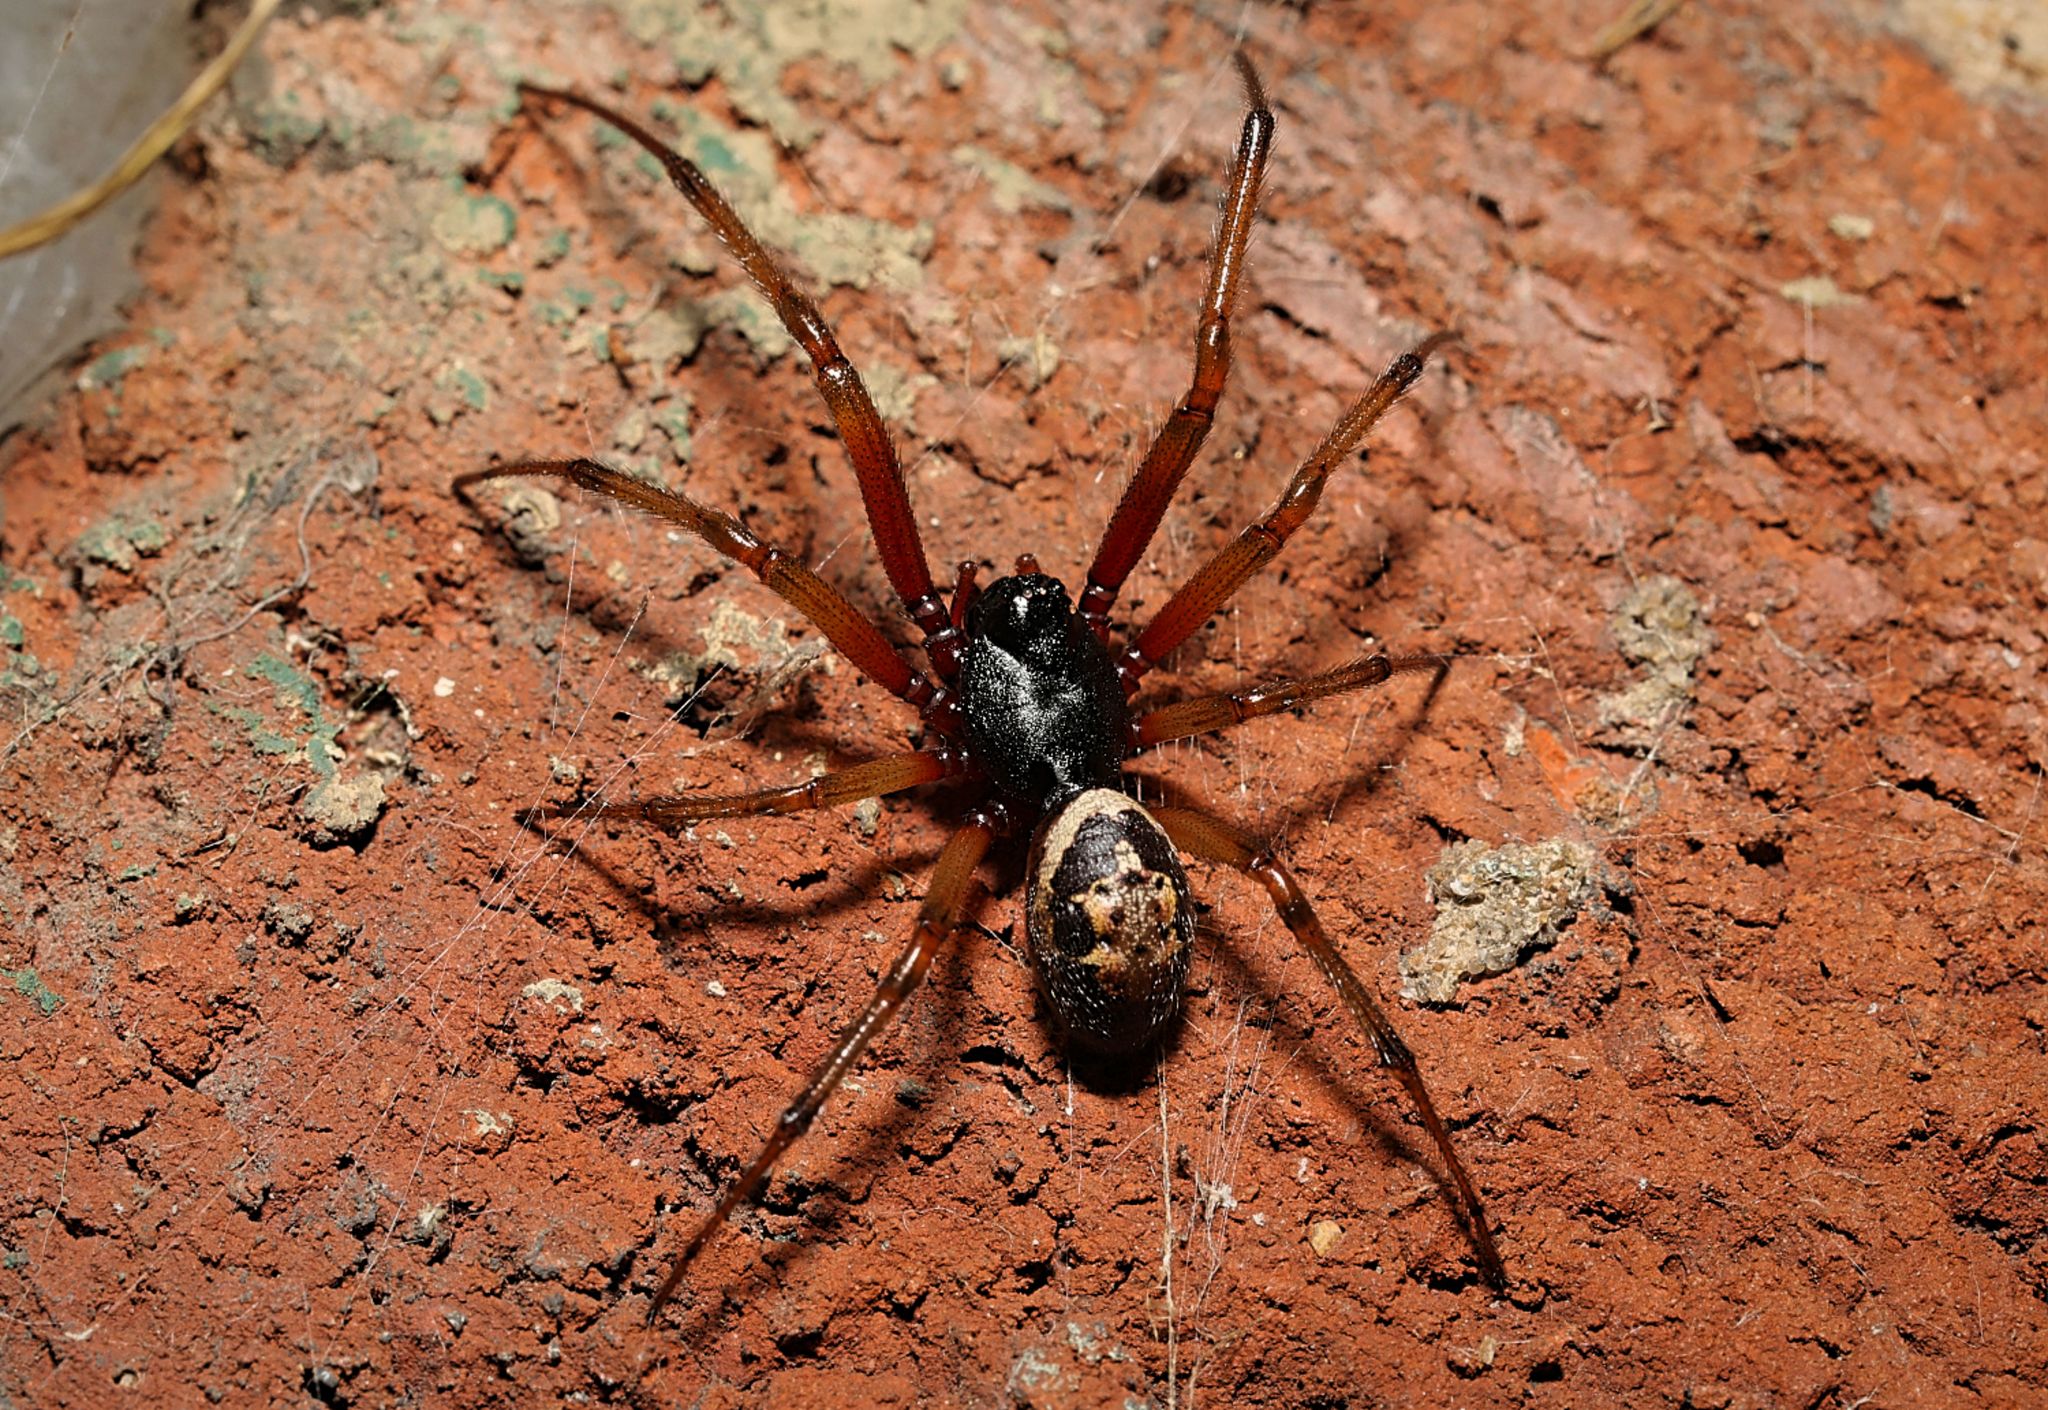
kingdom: Animalia
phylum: Arthropoda
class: Arachnida
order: Araneae
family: Theridiidae
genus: Steatoda
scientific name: Steatoda nobilis
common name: Cobweb weaver
